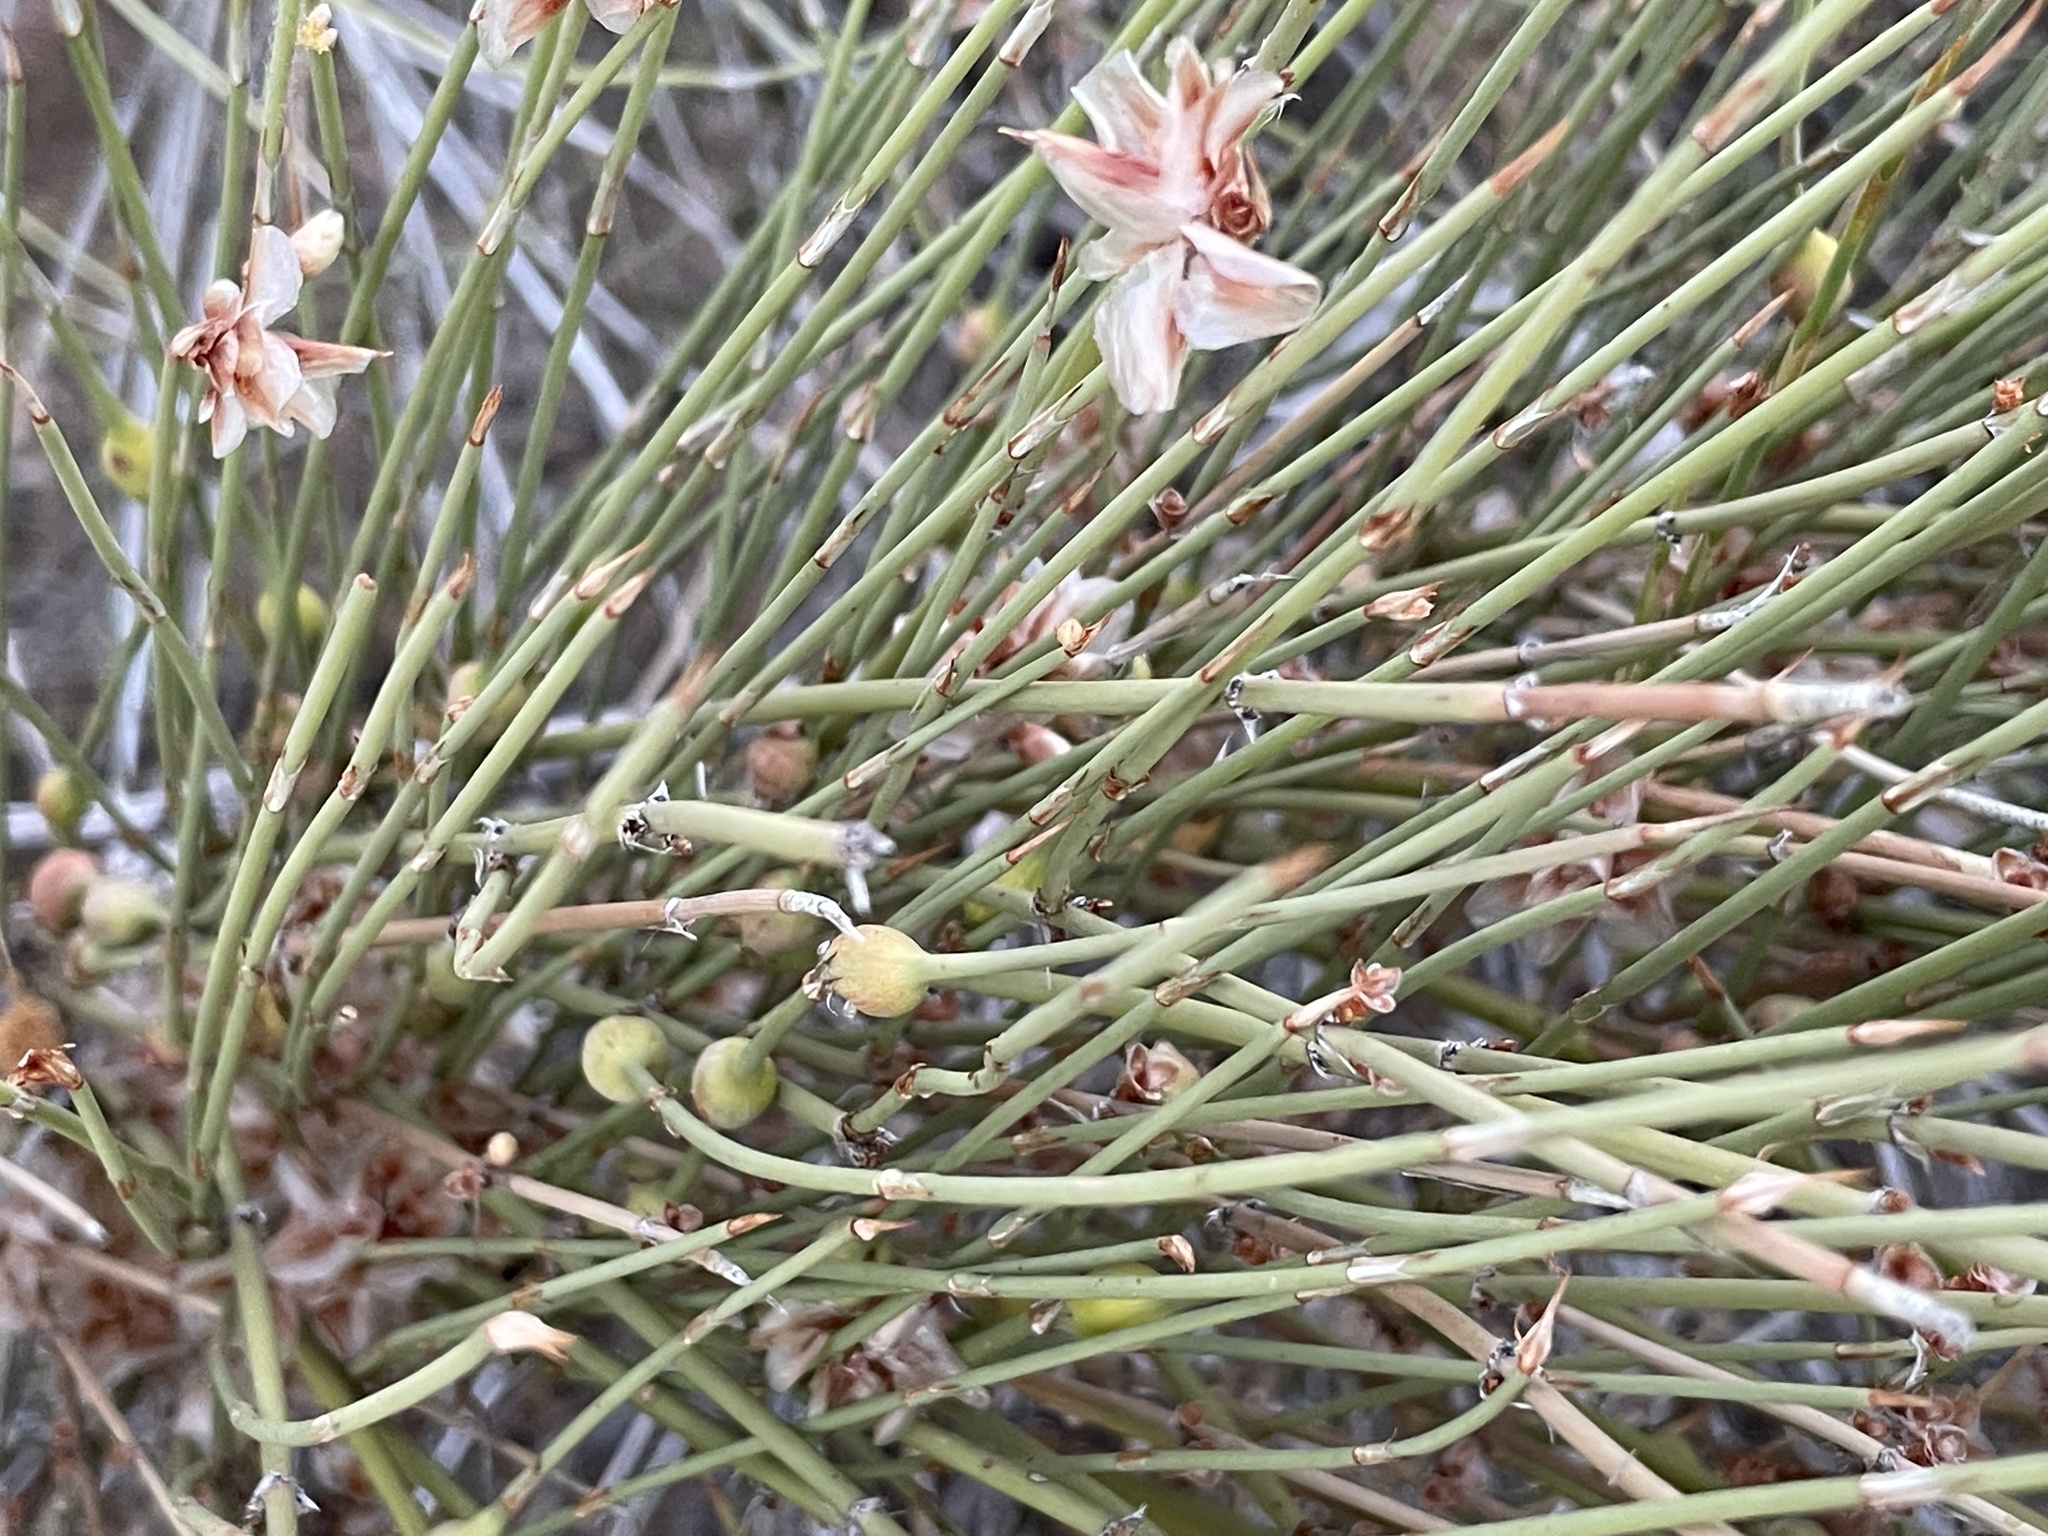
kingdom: Plantae
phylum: Tracheophyta
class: Gnetopsida
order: Ephedrales
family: Ephedraceae
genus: Ephedra
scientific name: Ephedra trifurca
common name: Mexican-tea
